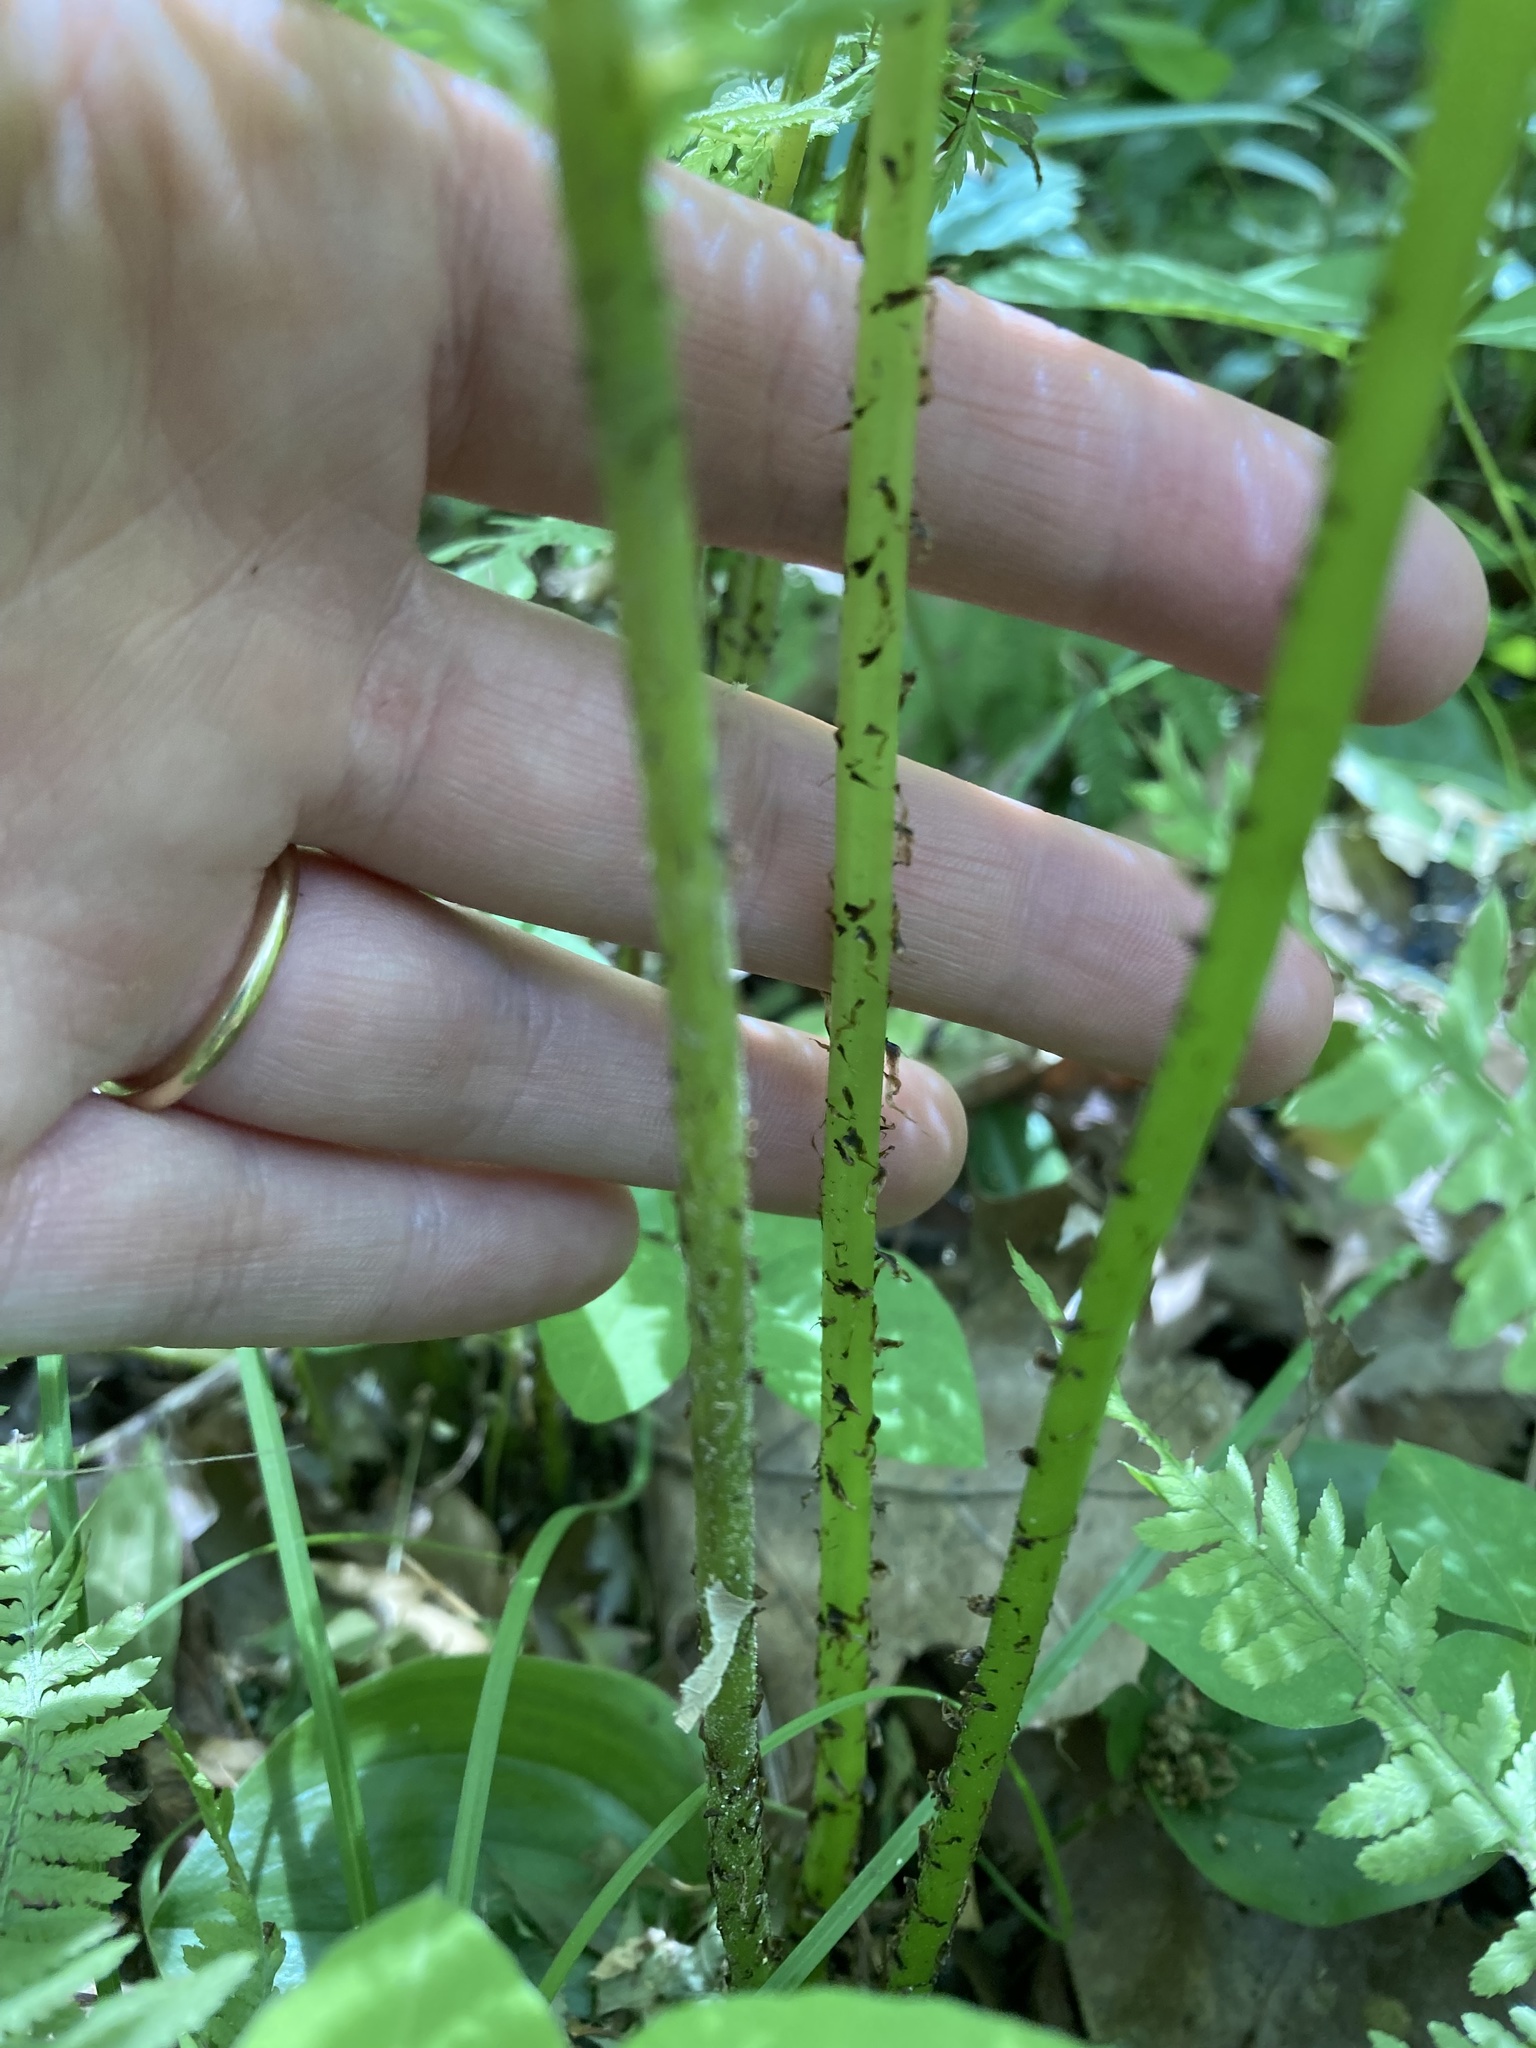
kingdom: Plantae
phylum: Tracheophyta
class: Polypodiopsida
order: Polypodiales
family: Athyriaceae
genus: Athyrium
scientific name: Athyrium angustum
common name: Northern lady fern
